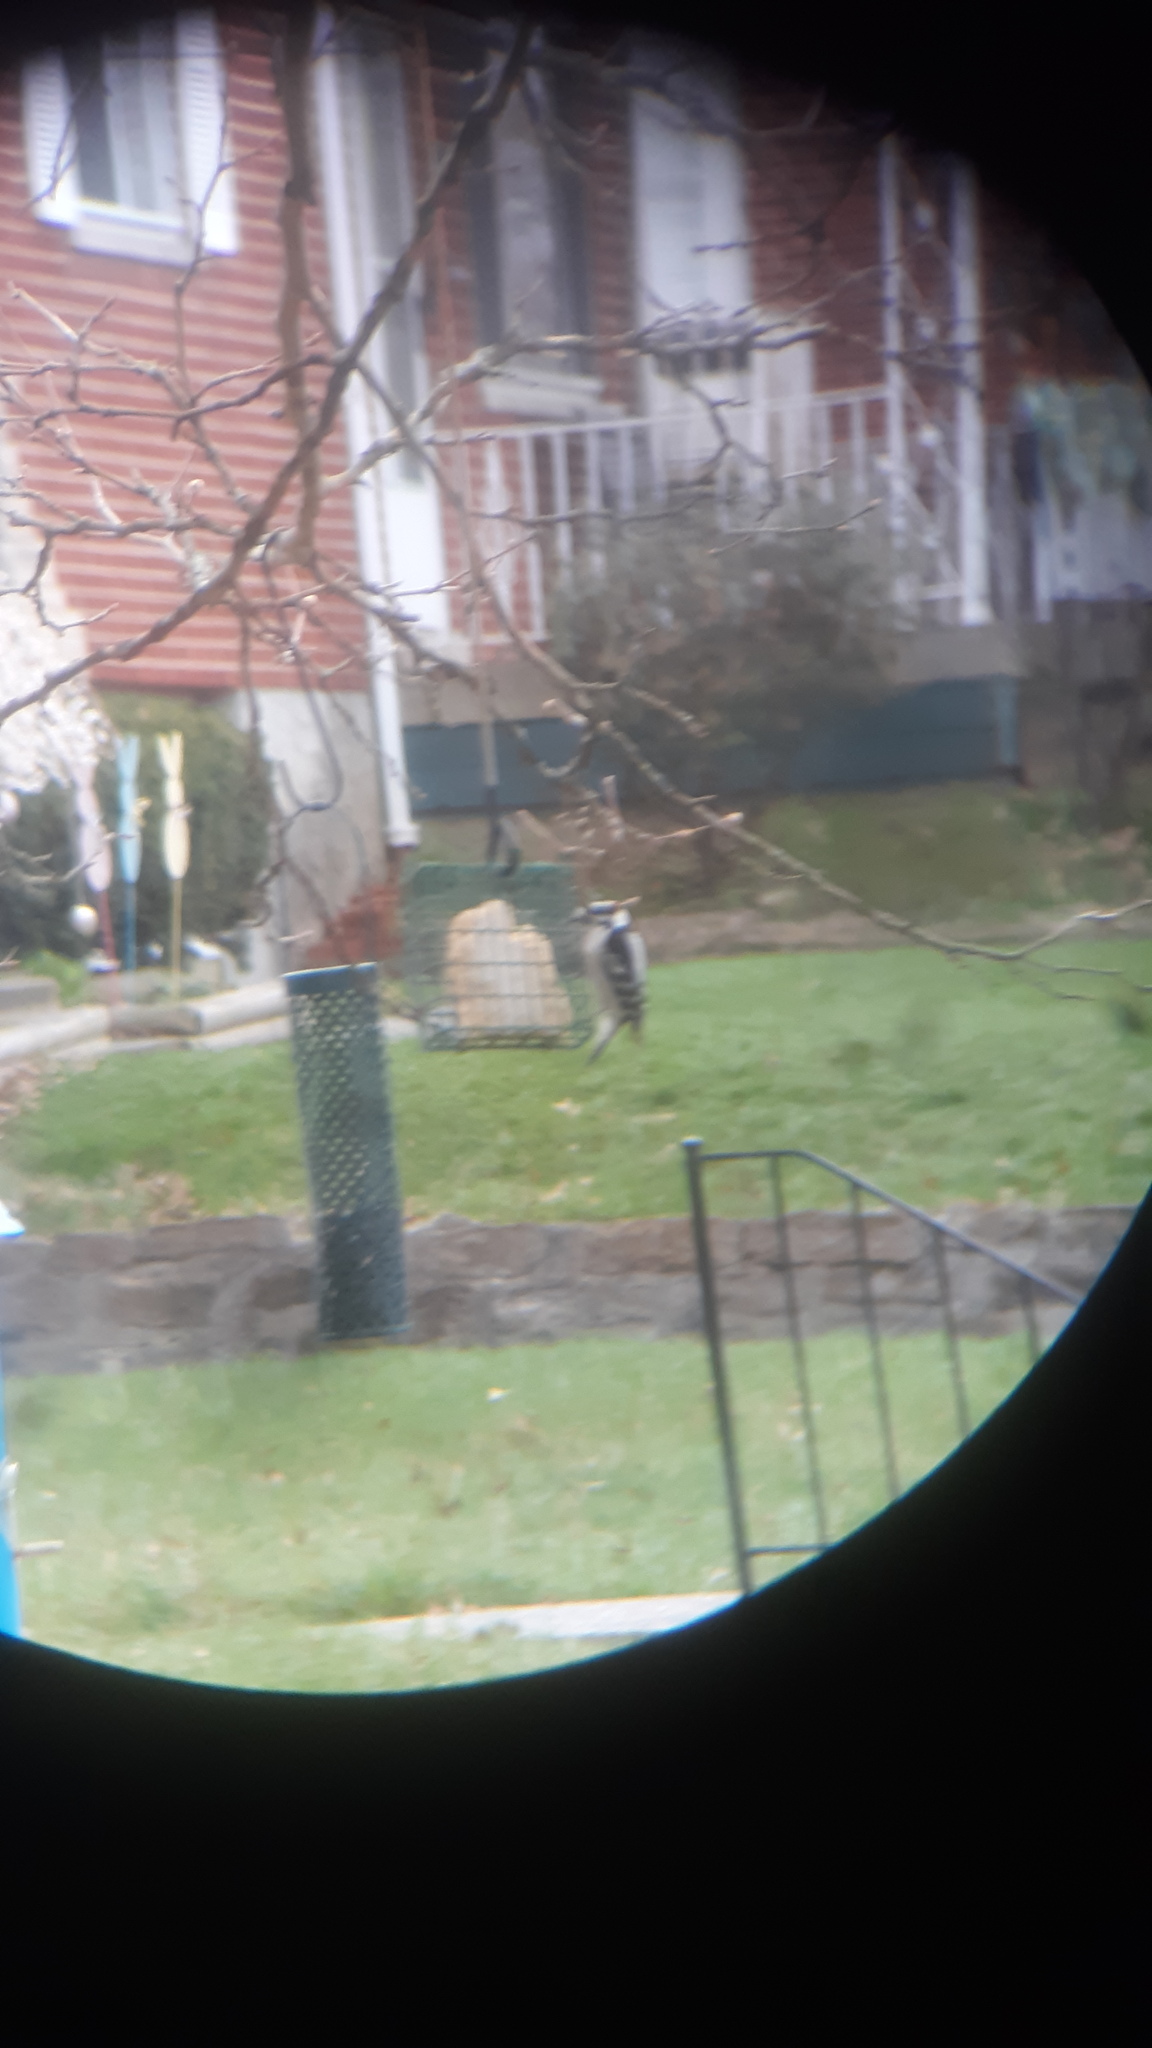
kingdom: Animalia
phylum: Chordata
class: Aves
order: Piciformes
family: Picidae
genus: Dryobates
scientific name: Dryobates pubescens
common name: Downy woodpecker
